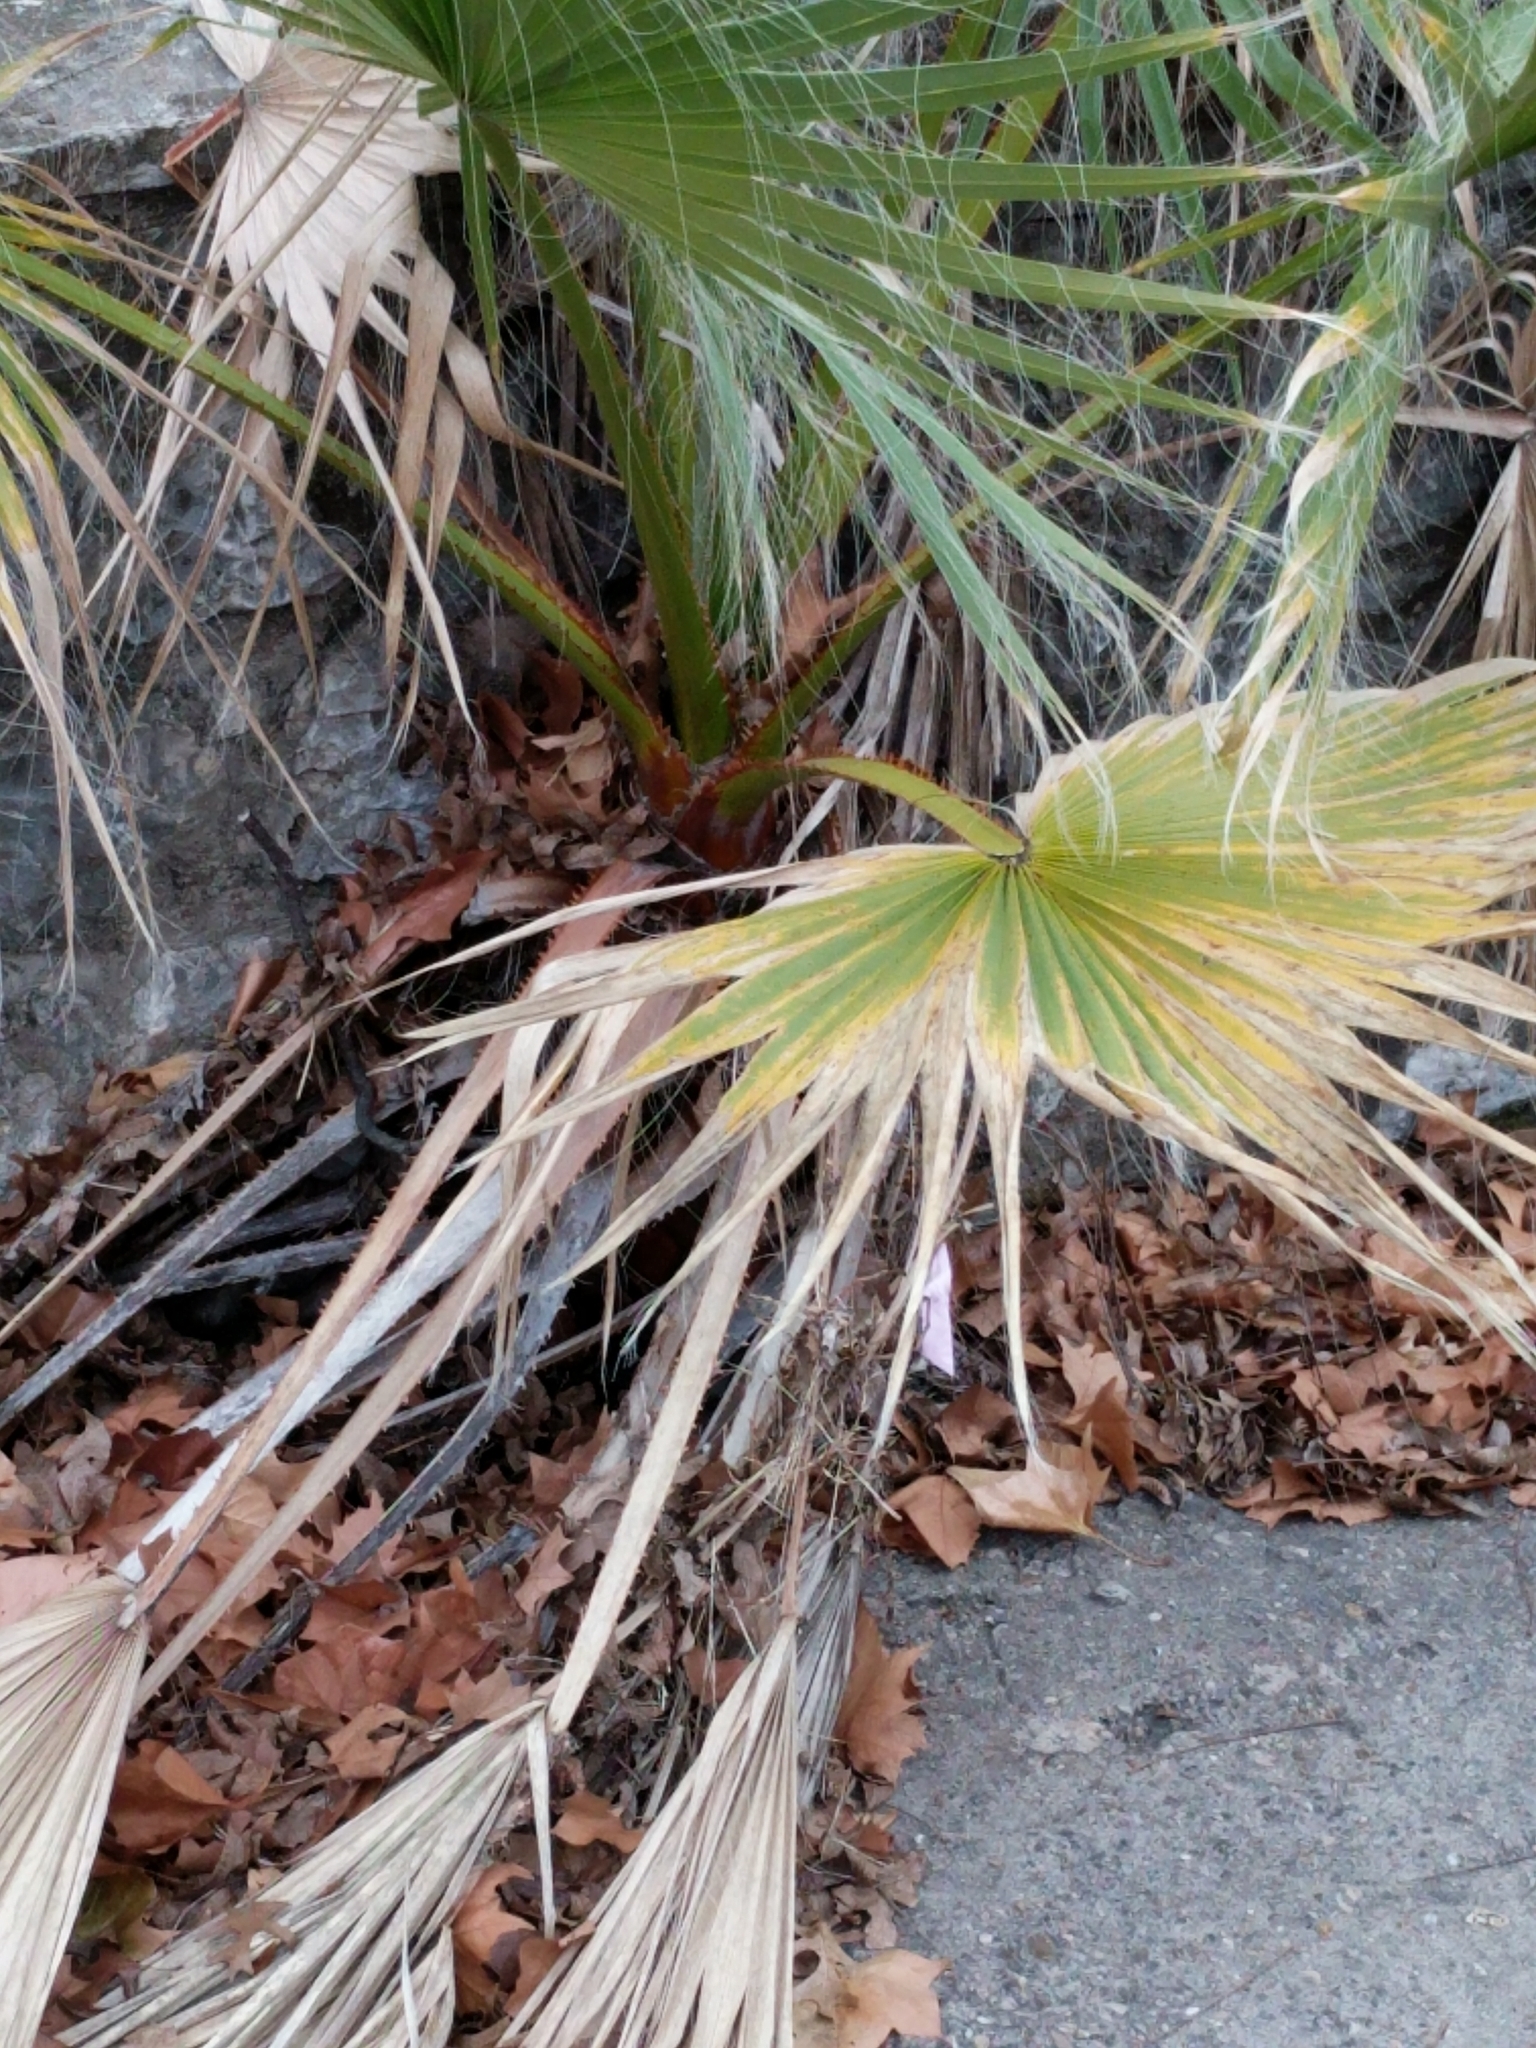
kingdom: Plantae
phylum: Tracheophyta
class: Liliopsida
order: Arecales
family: Arecaceae
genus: Washingtonia
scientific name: Washingtonia robusta
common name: Mexican fan palm
